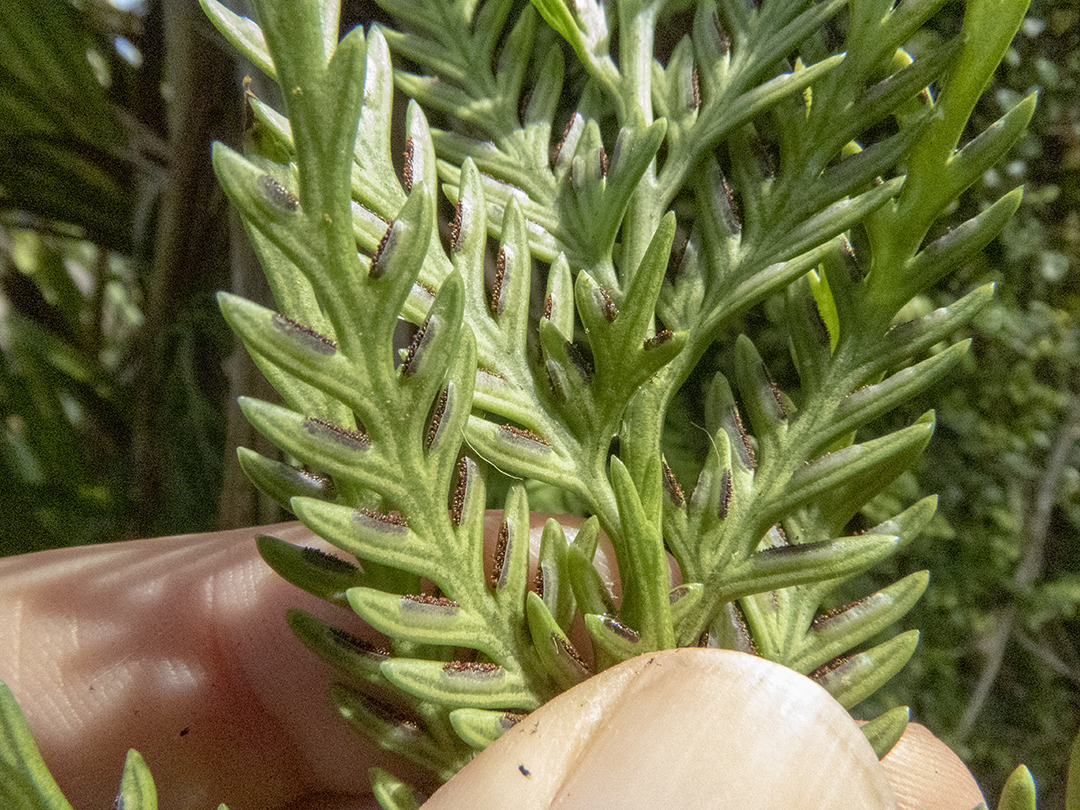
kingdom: Plantae
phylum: Tracheophyta
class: Polypodiopsida
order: Polypodiales
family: Aspleniaceae
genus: Asplenium
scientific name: Asplenium flaccidum
